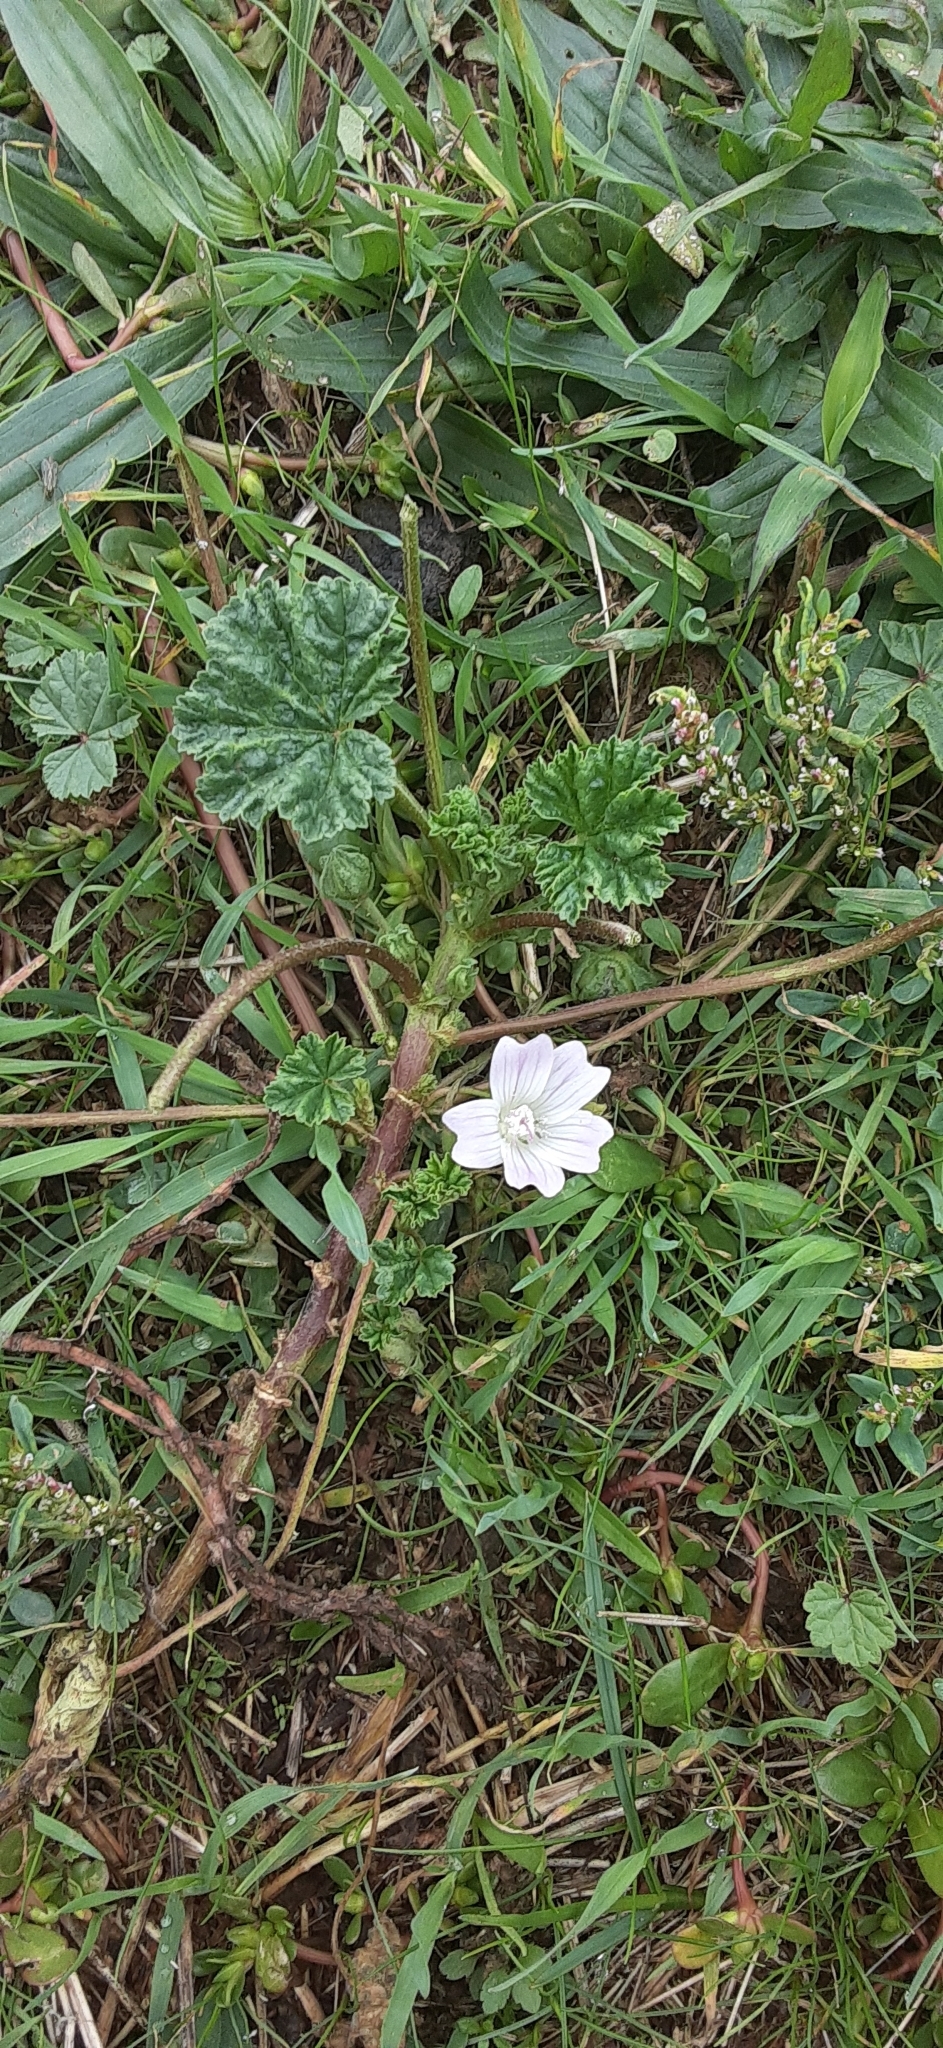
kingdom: Plantae
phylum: Tracheophyta
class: Magnoliopsida
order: Malvales
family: Malvaceae
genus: Malva
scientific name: Malva neglecta
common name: Common mallow
